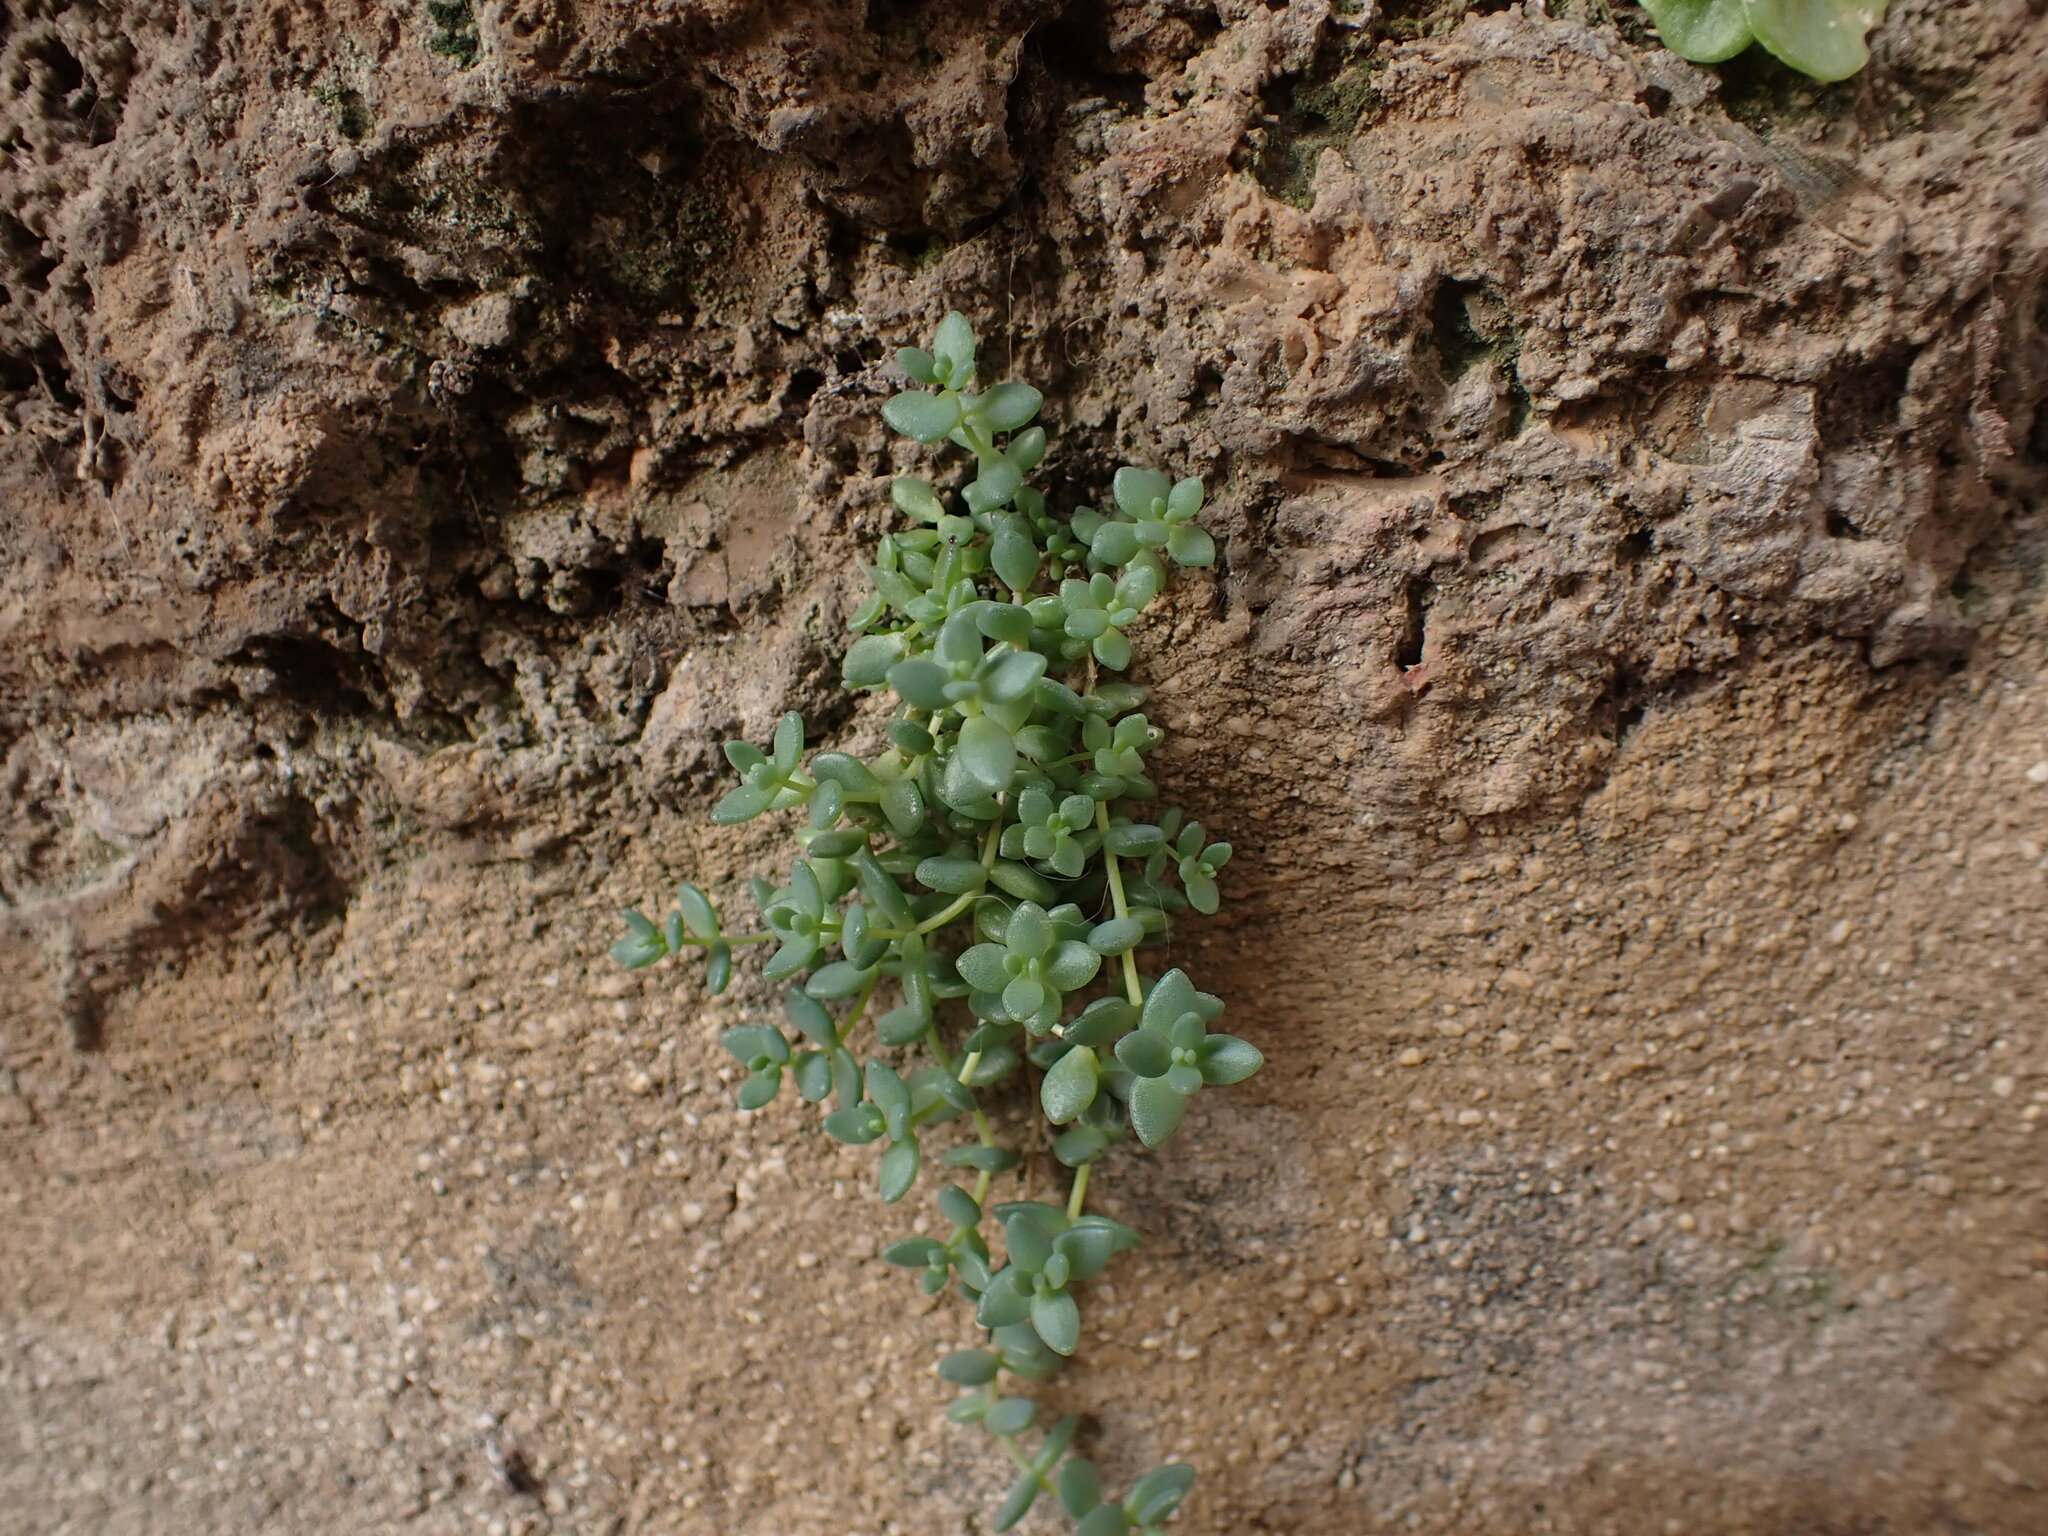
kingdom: Plantae
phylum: Tracheophyta
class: Magnoliopsida
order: Saxifragales
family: Crassulaceae
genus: Sedum
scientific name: Sedum dasyphyllum
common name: Thick-leaf stonecrop
